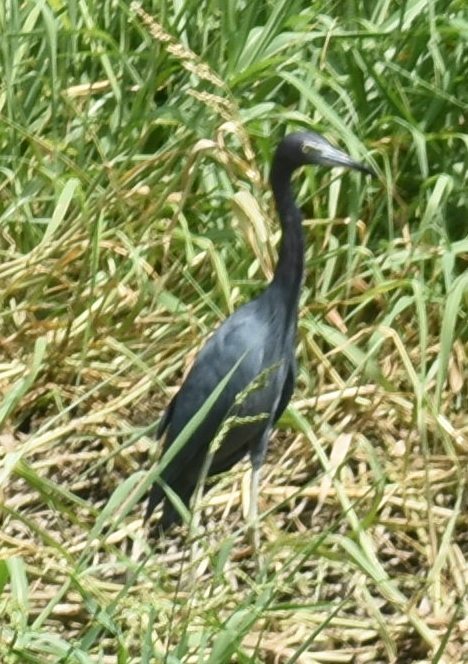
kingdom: Animalia
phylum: Chordata
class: Aves
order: Pelecaniformes
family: Ardeidae
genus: Egretta
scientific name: Egretta caerulea
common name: Little blue heron
